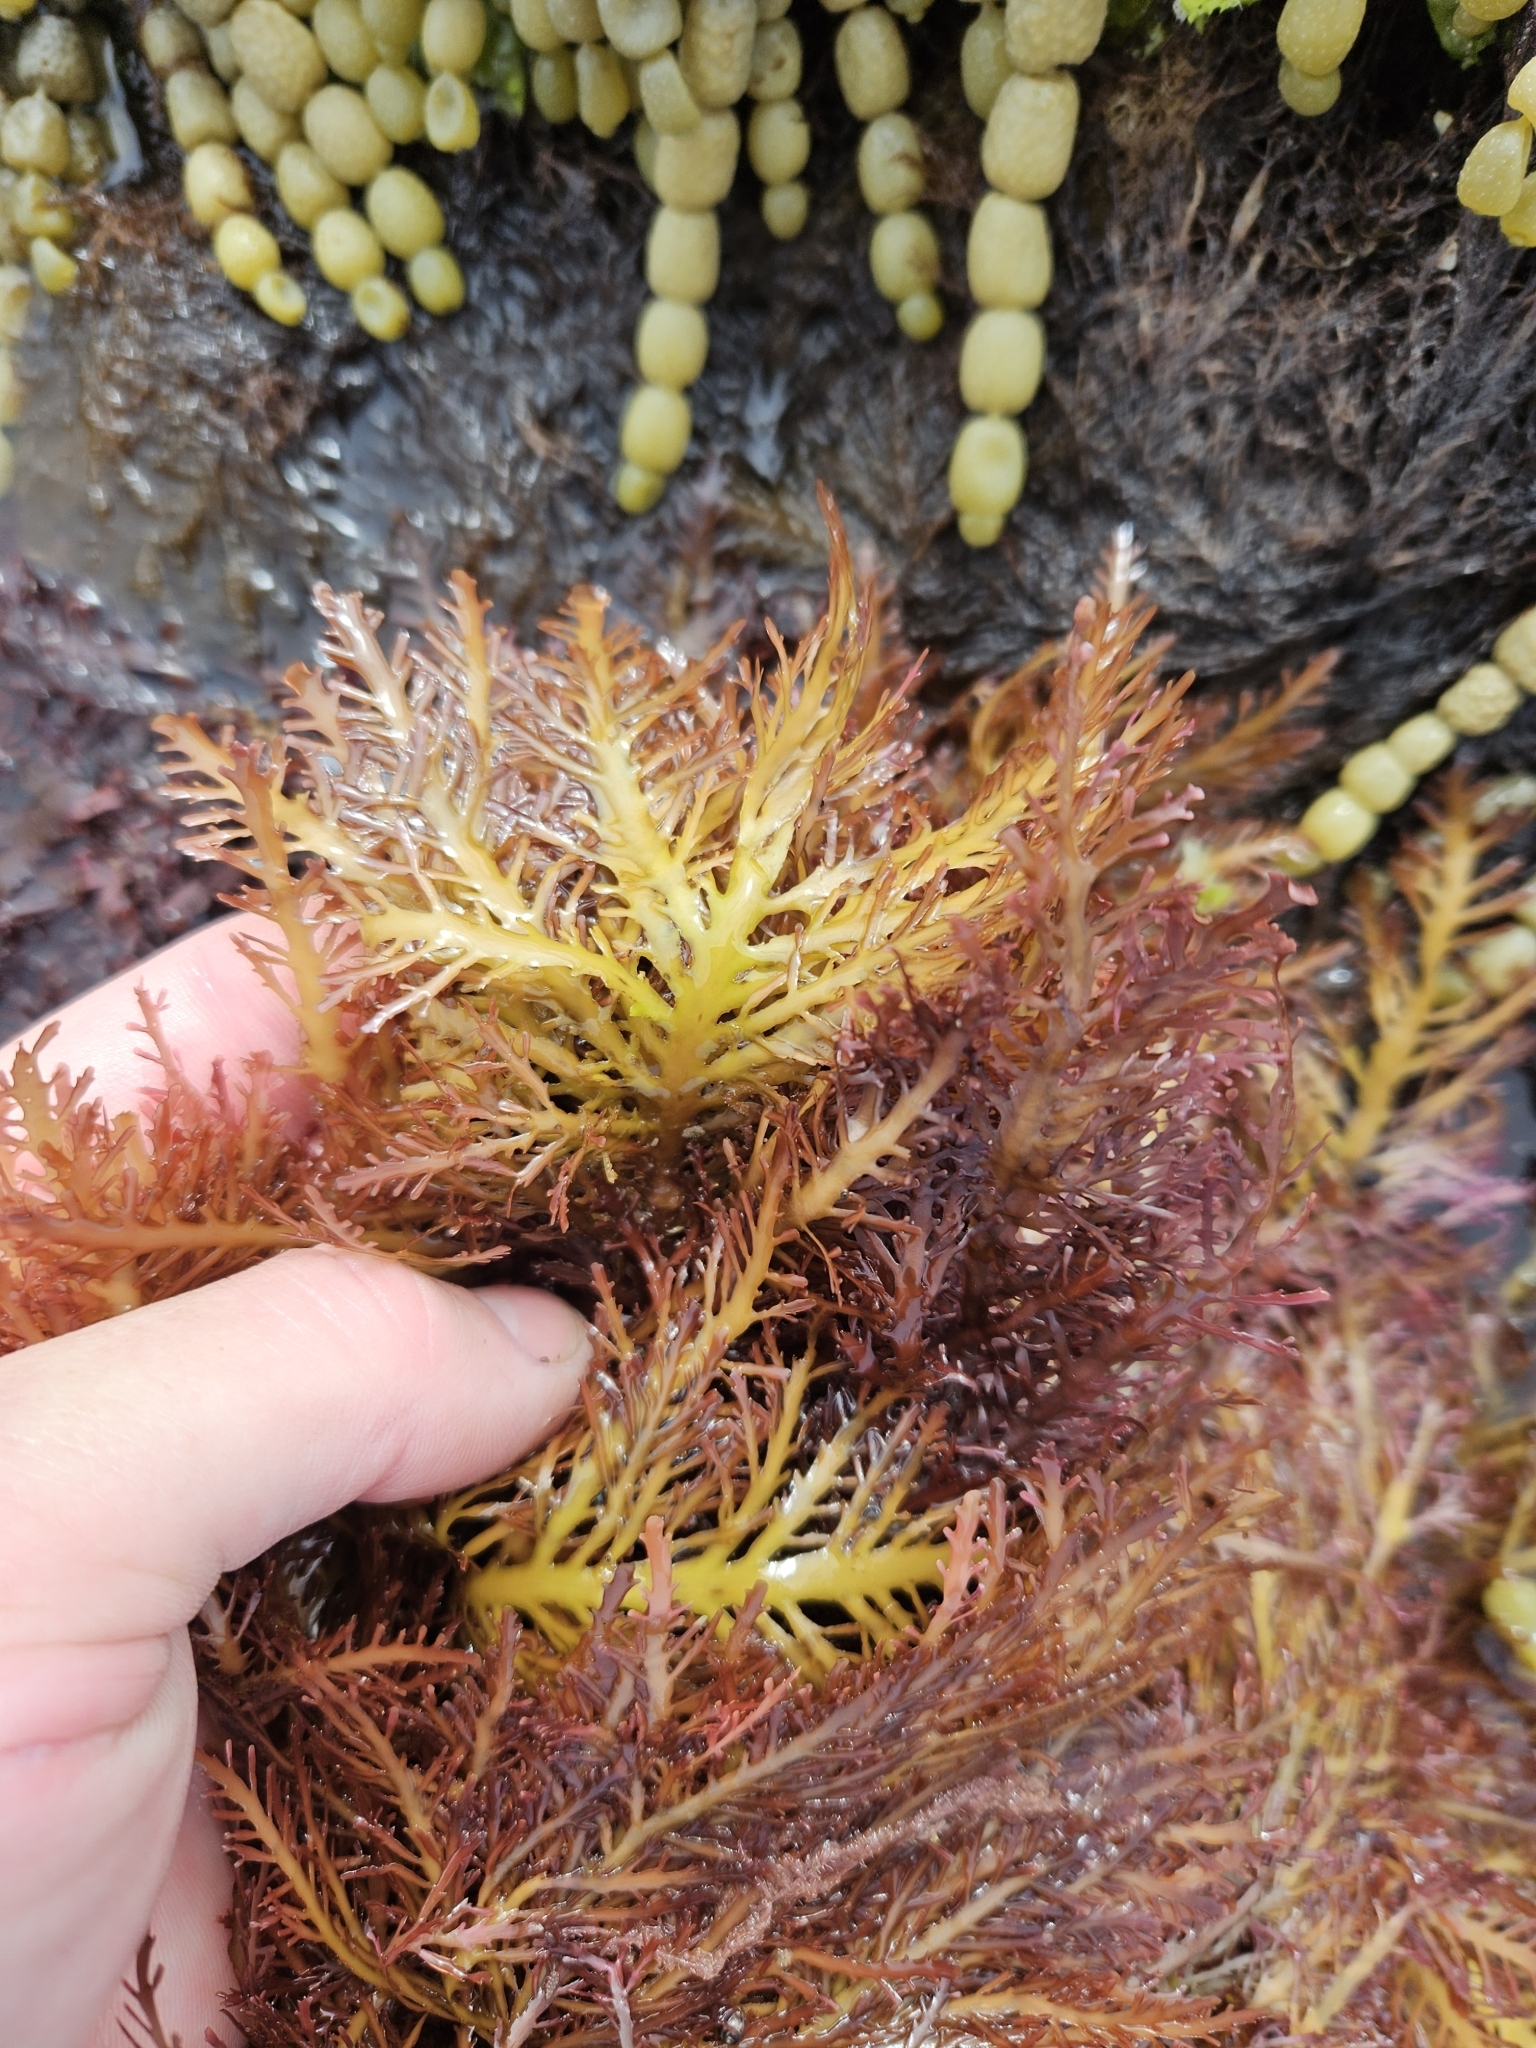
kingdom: Plantae
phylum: Rhodophyta
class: Florideophyceae
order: Gelidiales
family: Pterocladiaceae
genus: Pterocladia
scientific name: Pterocladia lucida
